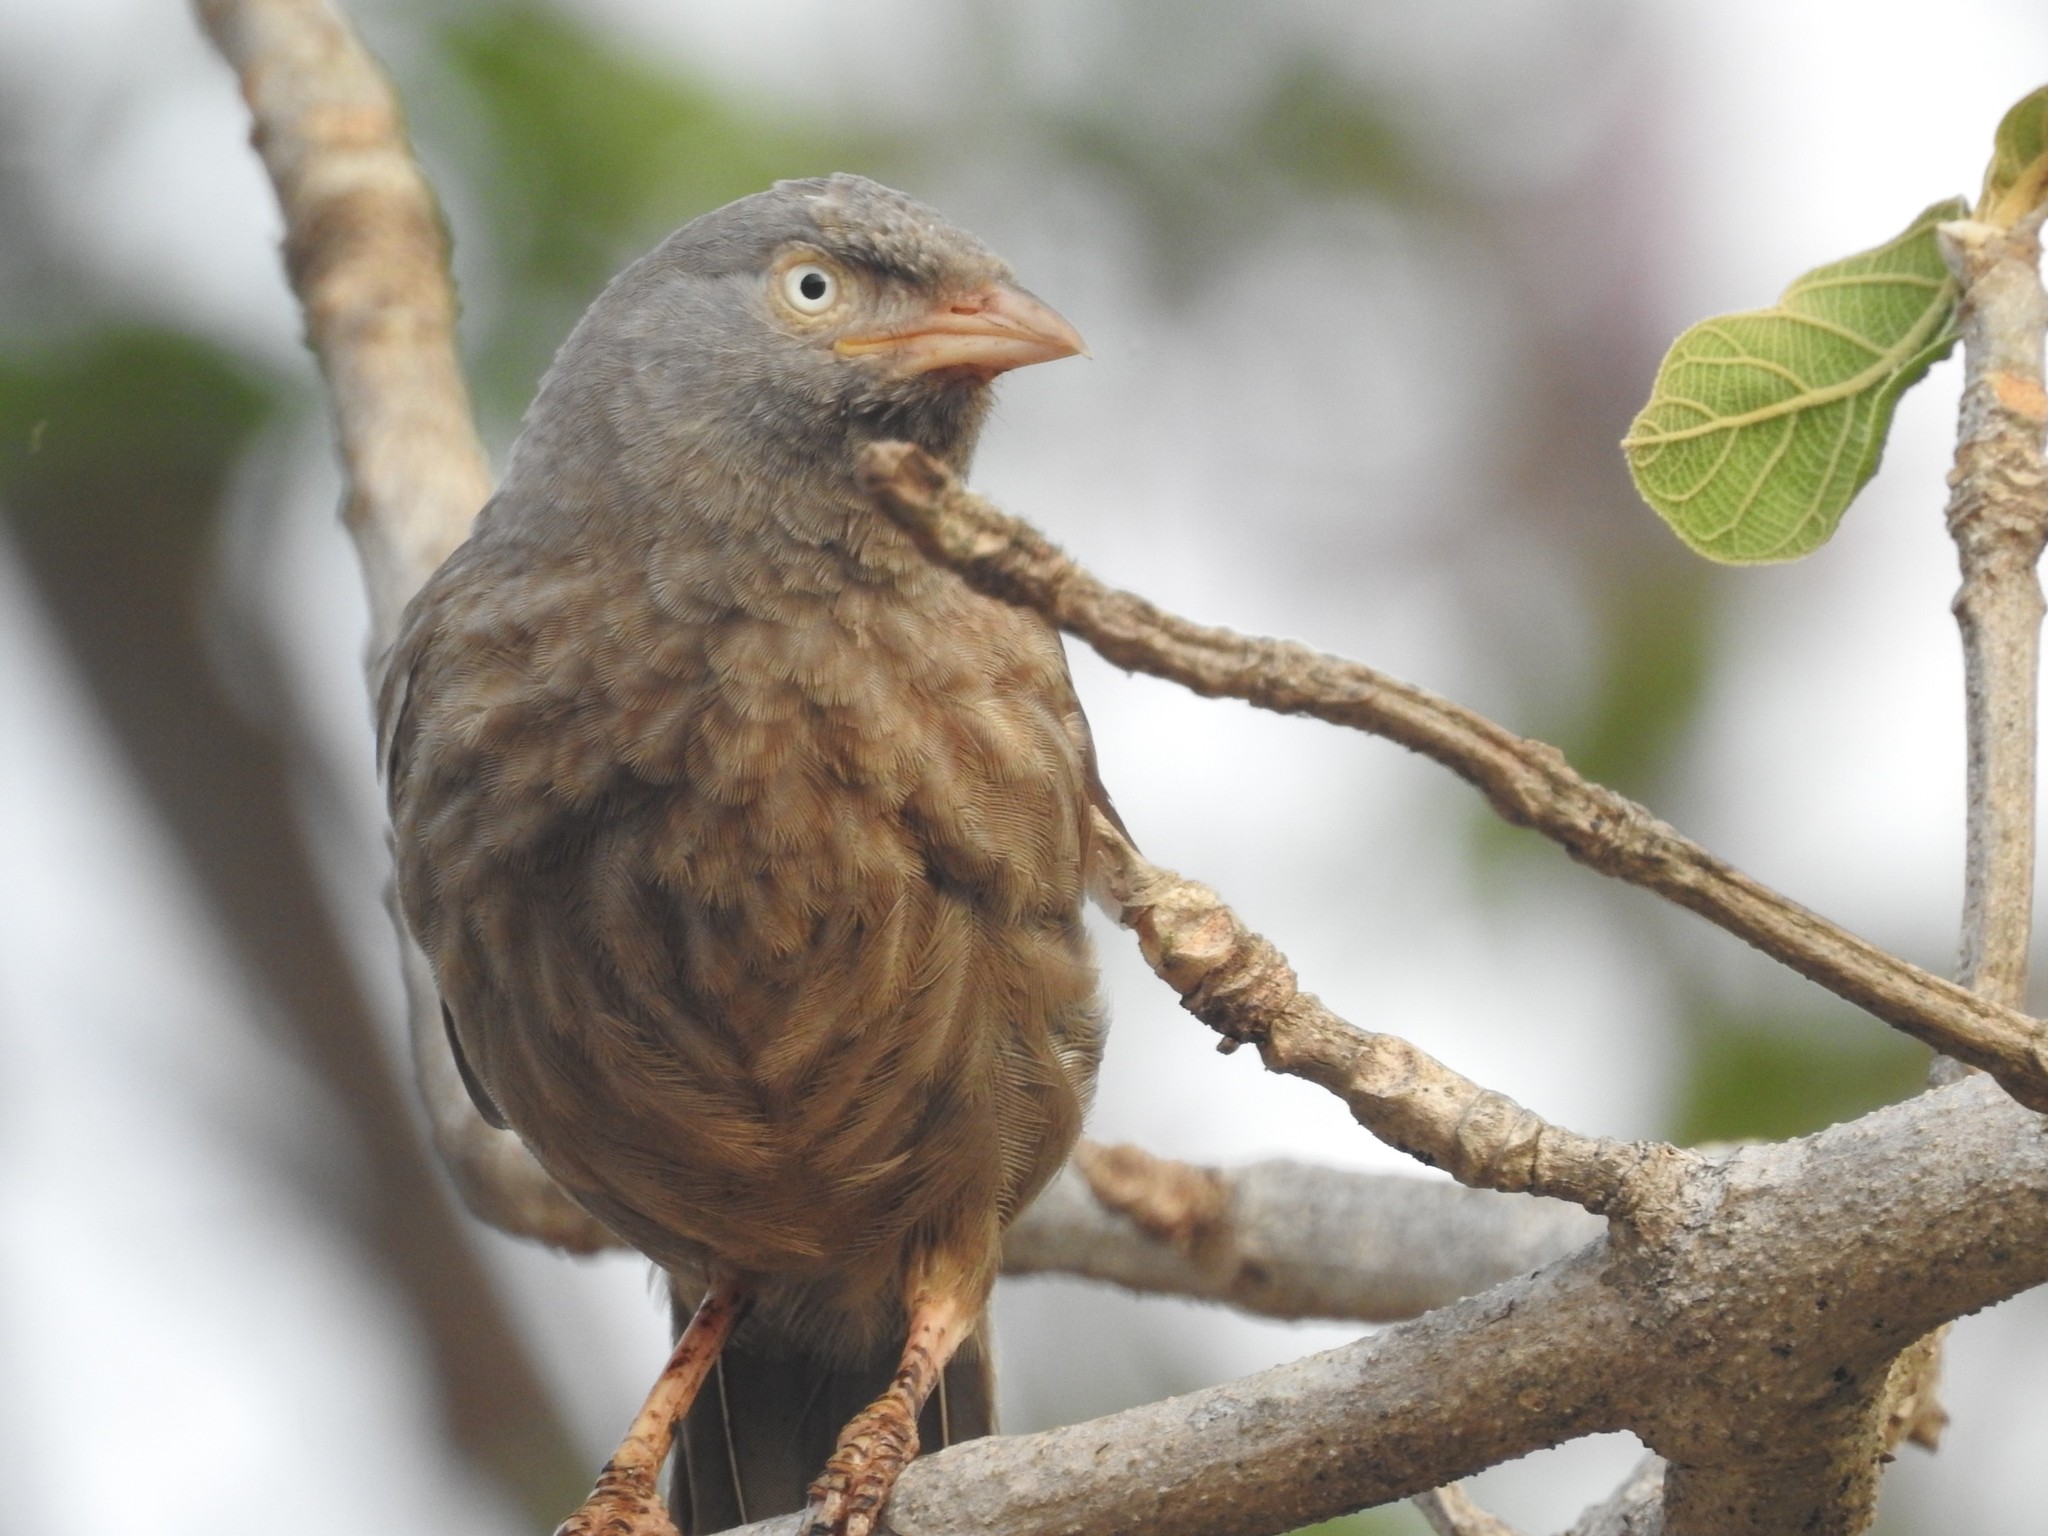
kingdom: Animalia
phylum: Chordata
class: Aves
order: Passeriformes
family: Leiothrichidae
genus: Turdoides
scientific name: Turdoides striata
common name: Jungle babbler
